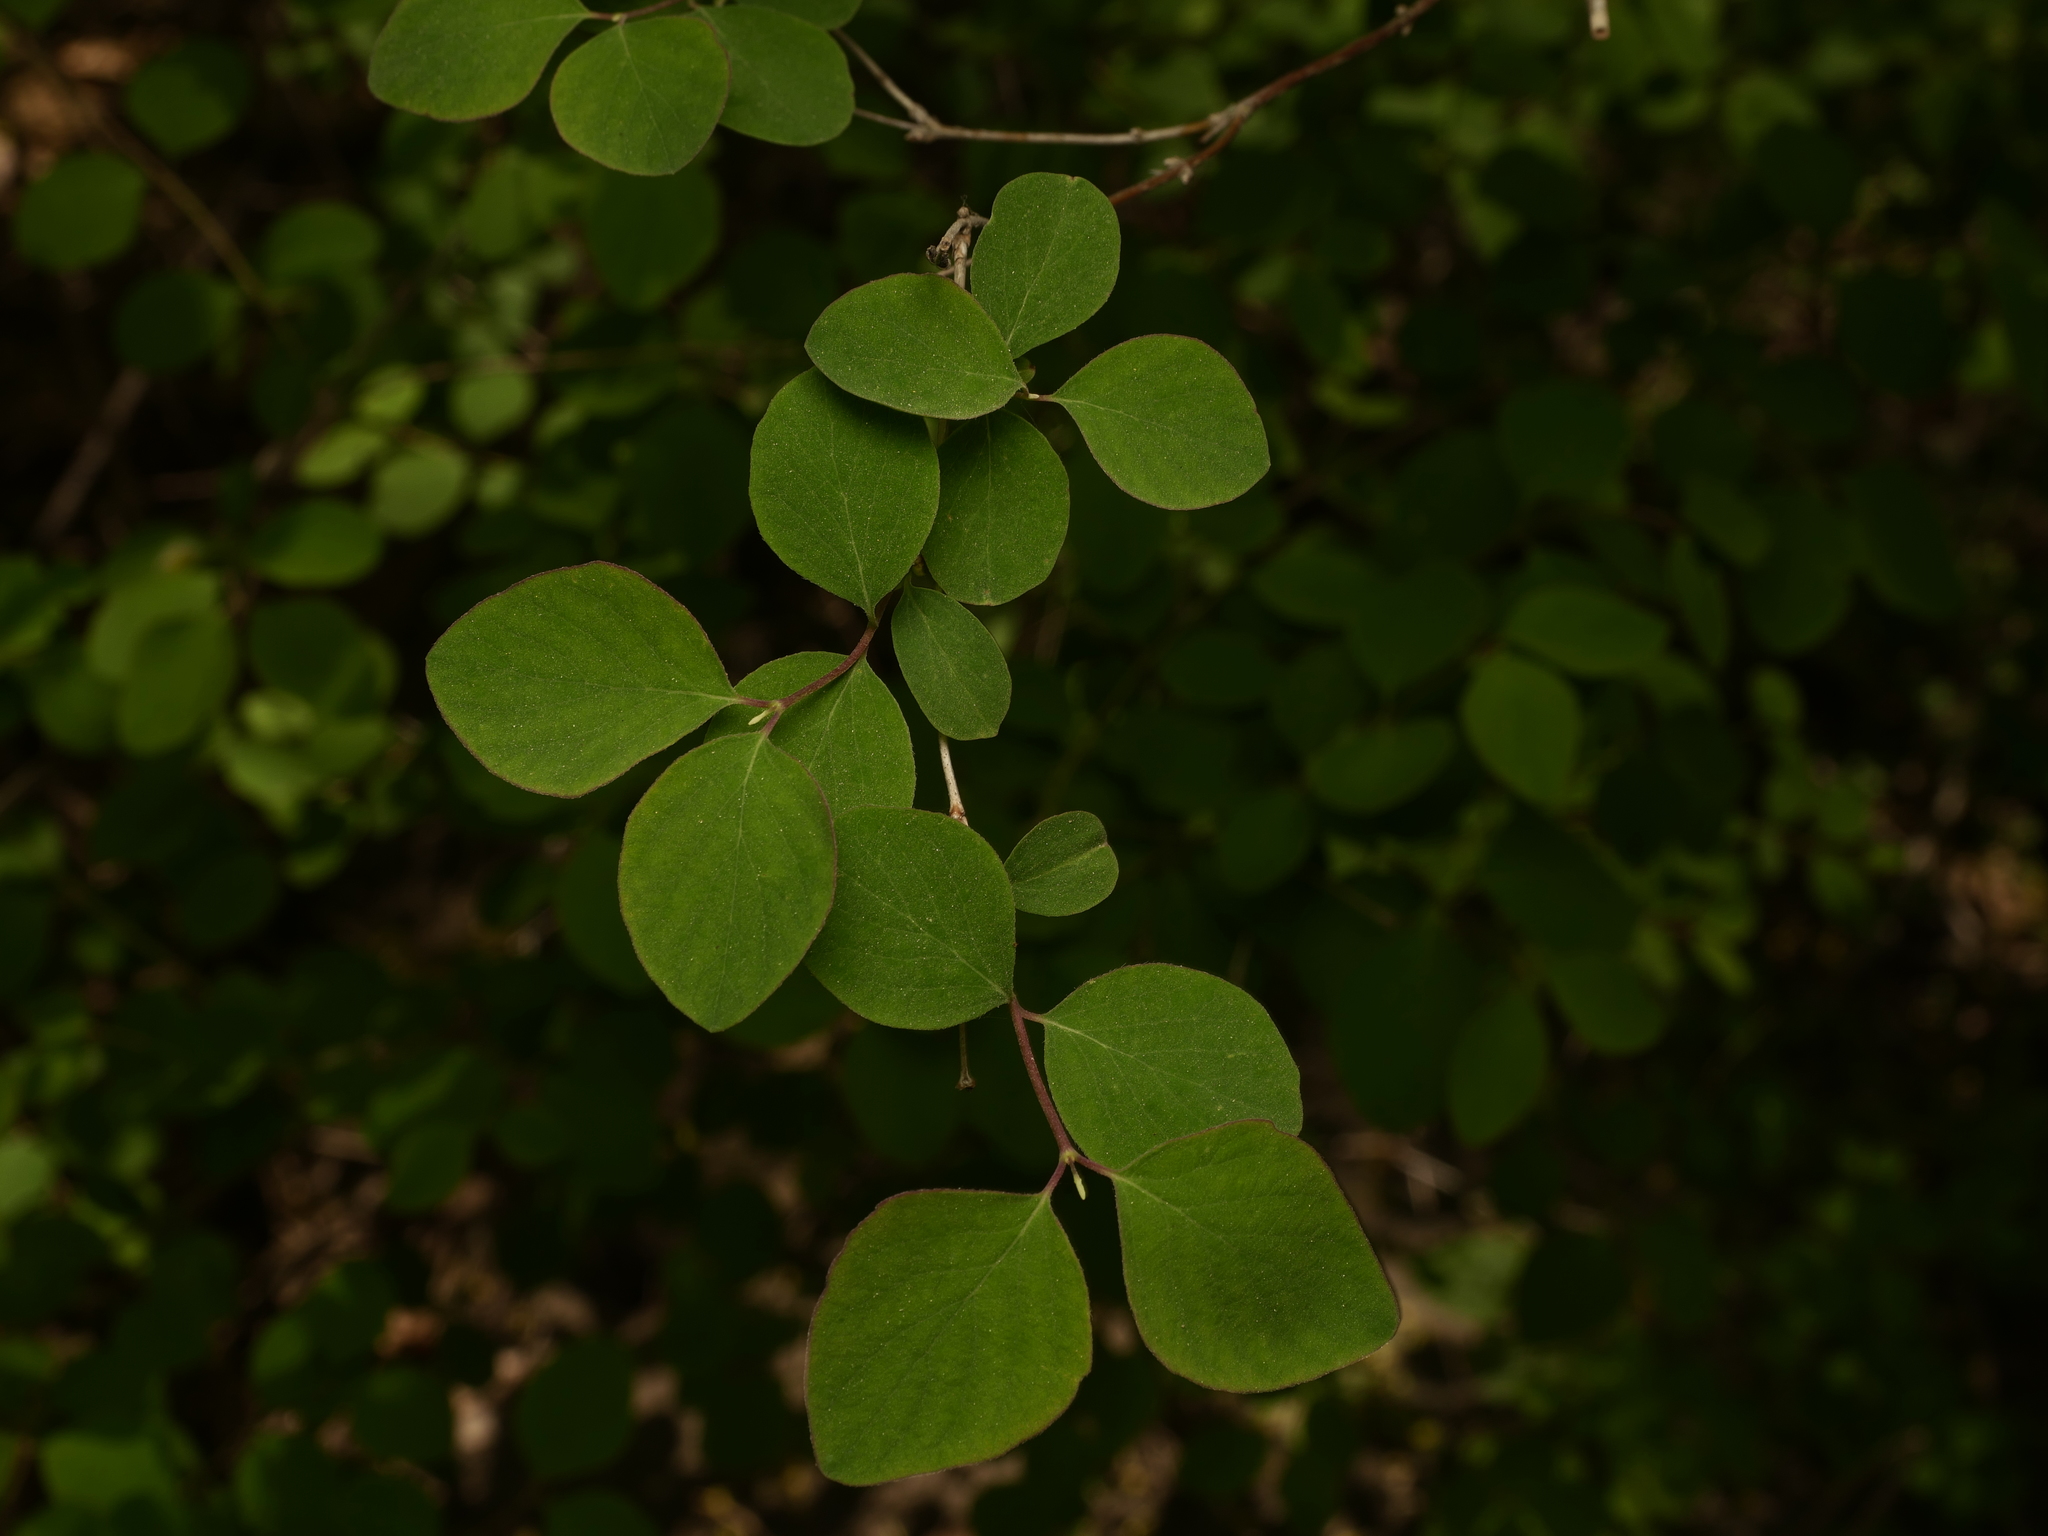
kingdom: Plantae
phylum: Tracheophyta
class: Magnoliopsida
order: Dipsacales
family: Caprifoliaceae
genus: Symphoricarpos
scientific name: Symphoricarpos albus
